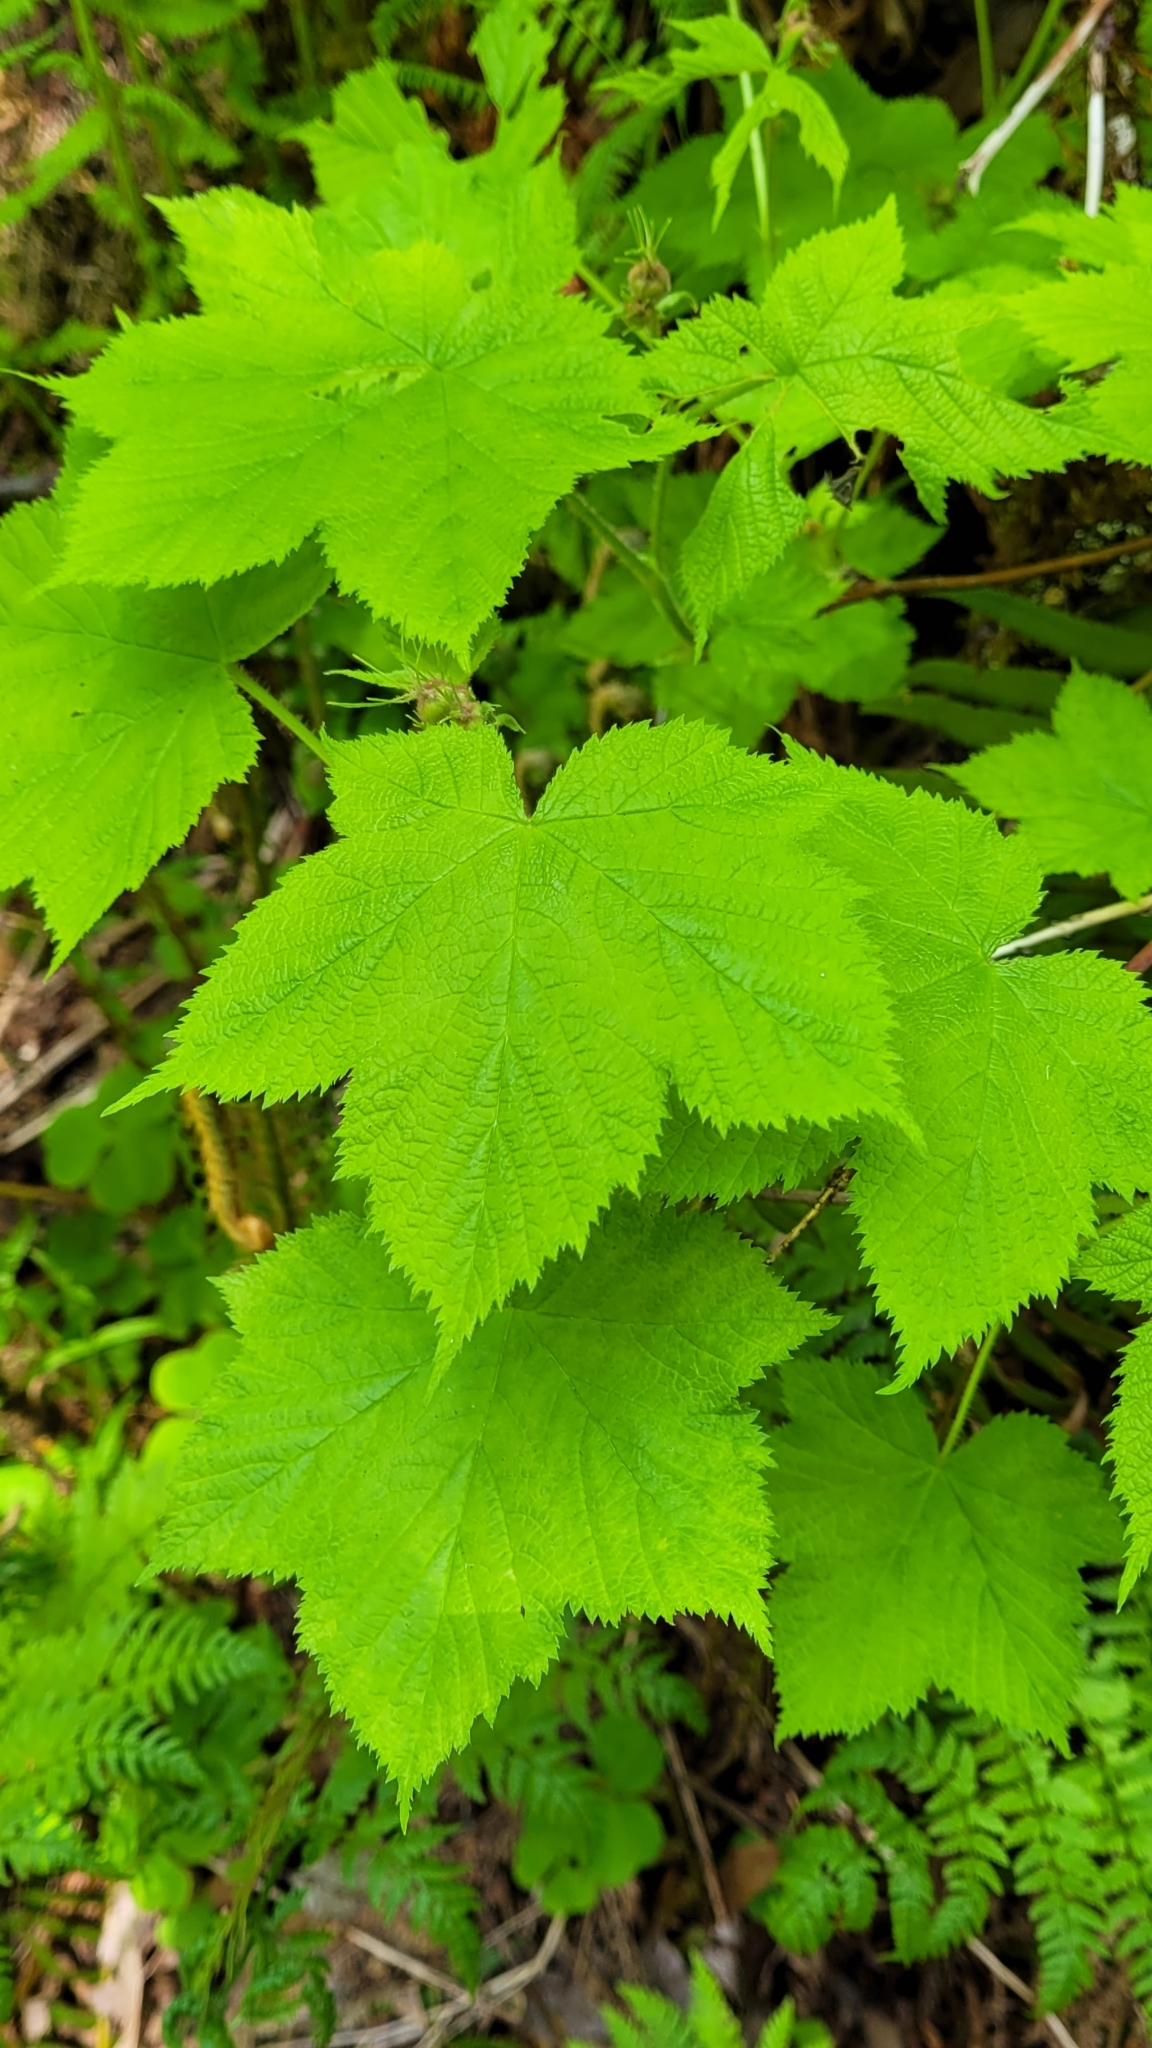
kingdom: Plantae
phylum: Tracheophyta
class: Magnoliopsida
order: Rosales
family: Rosaceae
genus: Rubus
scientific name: Rubus parviflorus
